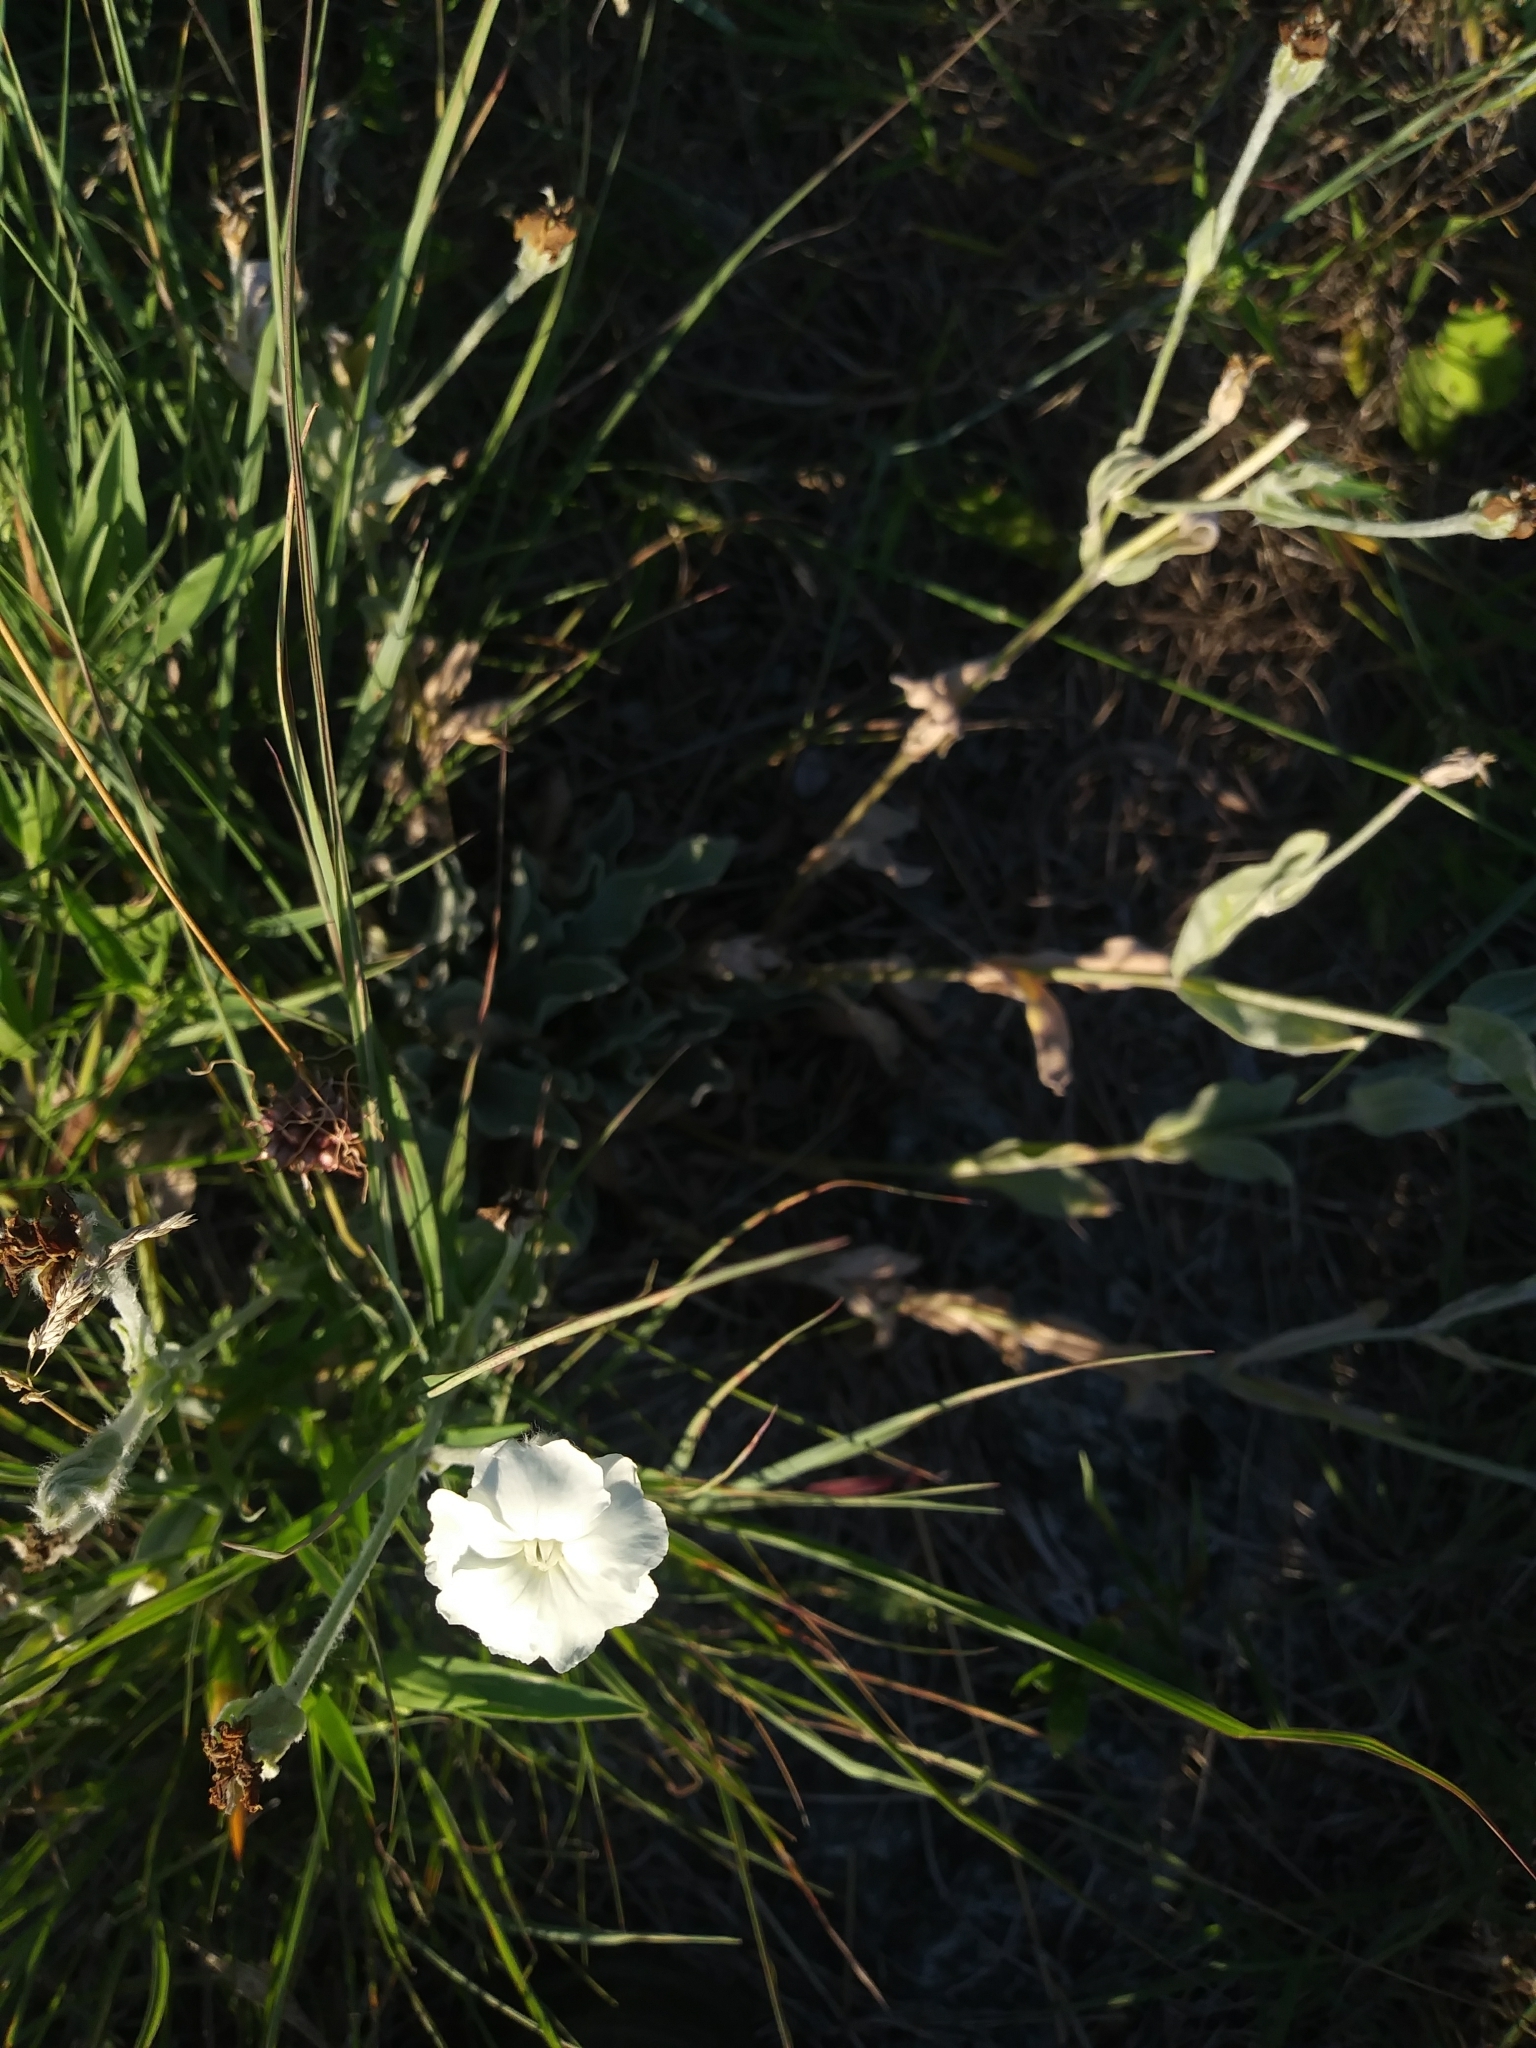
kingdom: Plantae
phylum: Tracheophyta
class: Magnoliopsida
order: Caryophyllales
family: Caryophyllaceae
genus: Silene
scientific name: Silene coronaria
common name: Rose campion
